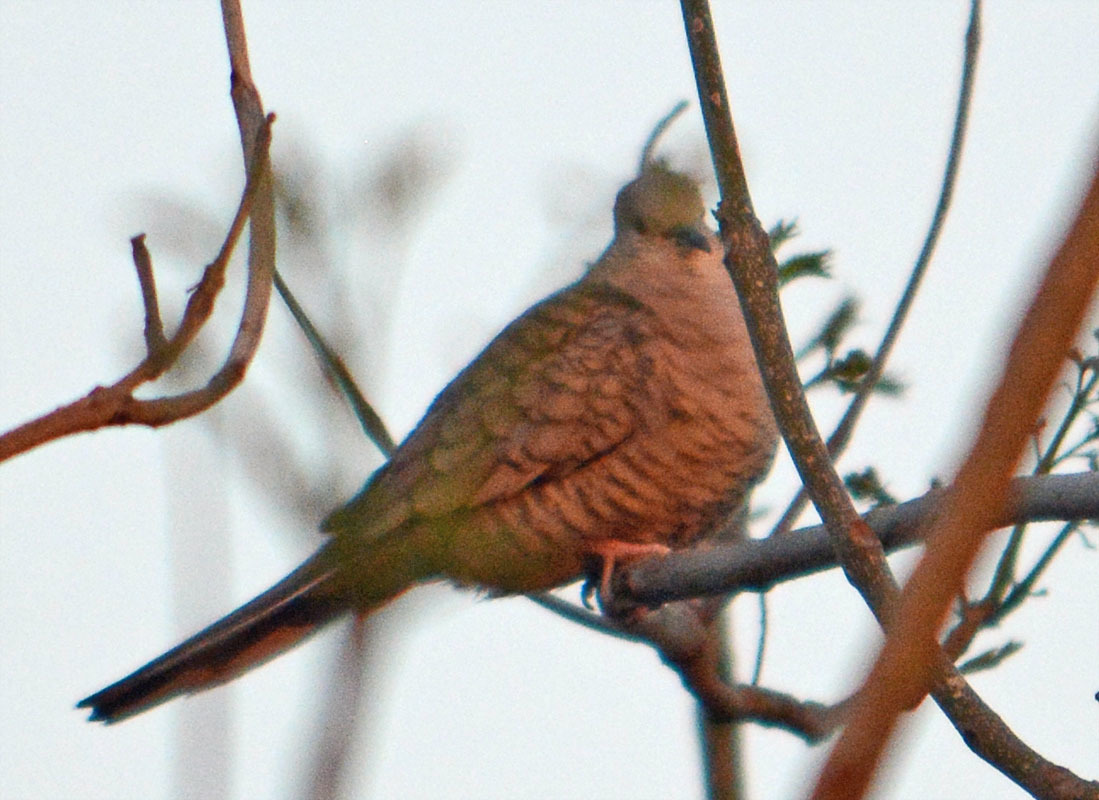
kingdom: Animalia
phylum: Chordata
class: Aves
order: Columbiformes
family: Columbidae
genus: Columbina
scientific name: Columbina inca
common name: Inca dove
